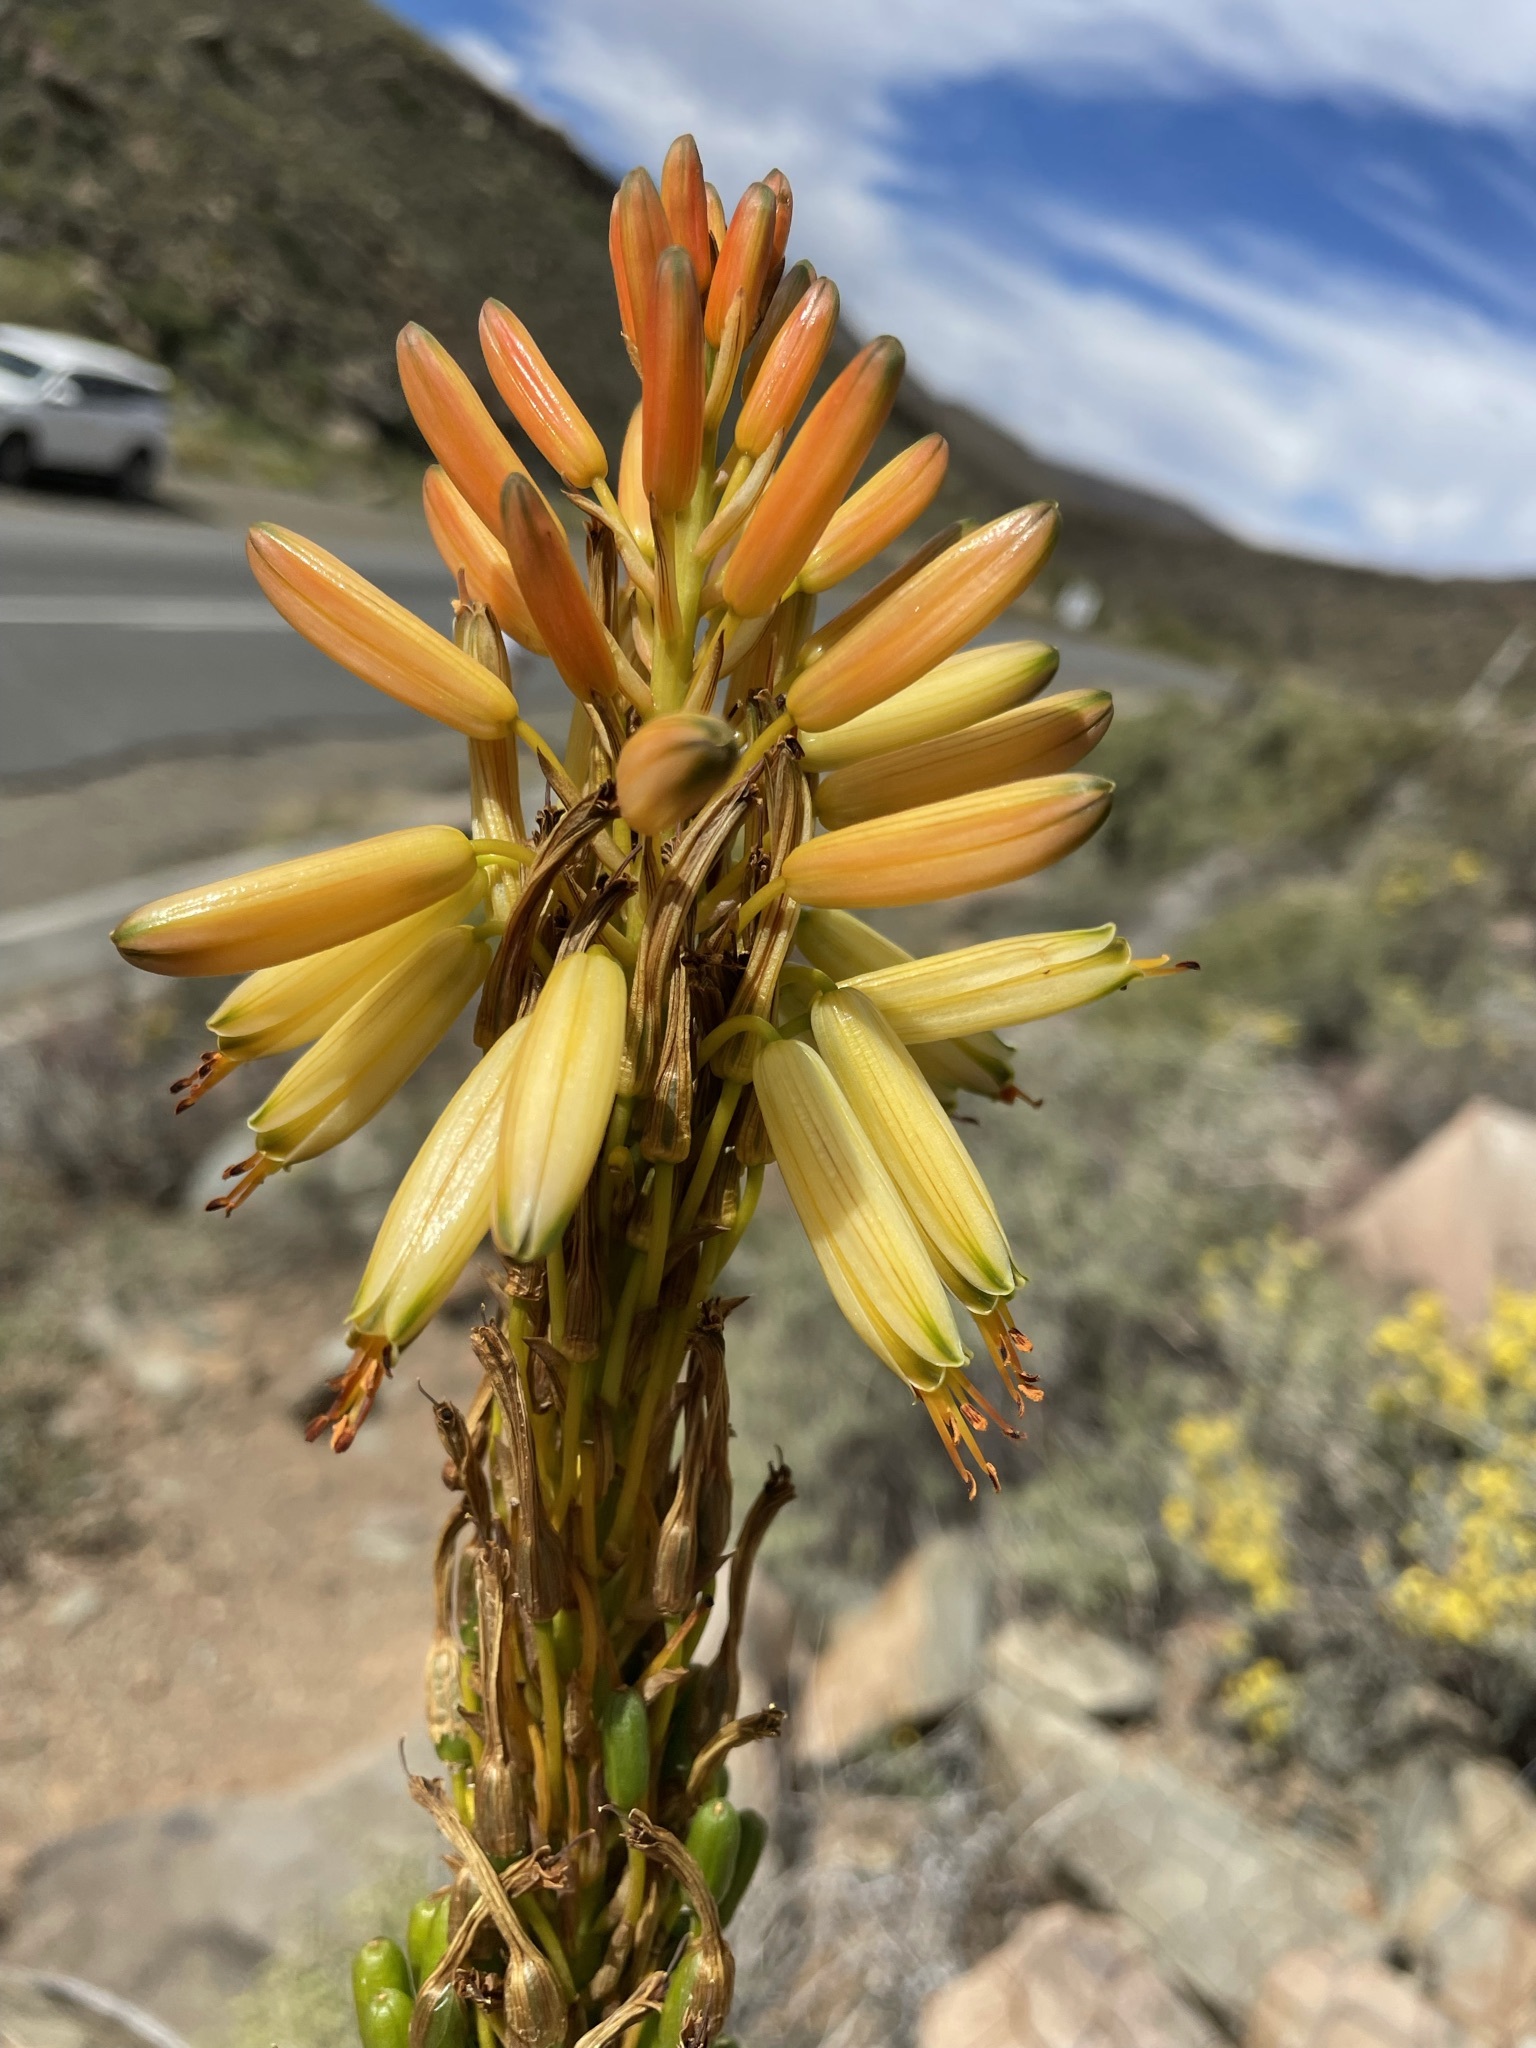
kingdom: Plantae
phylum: Tracheophyta
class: Liliopsida
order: Asparagales
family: Asphodelaceae
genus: Aloe
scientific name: Aloe microstigma
